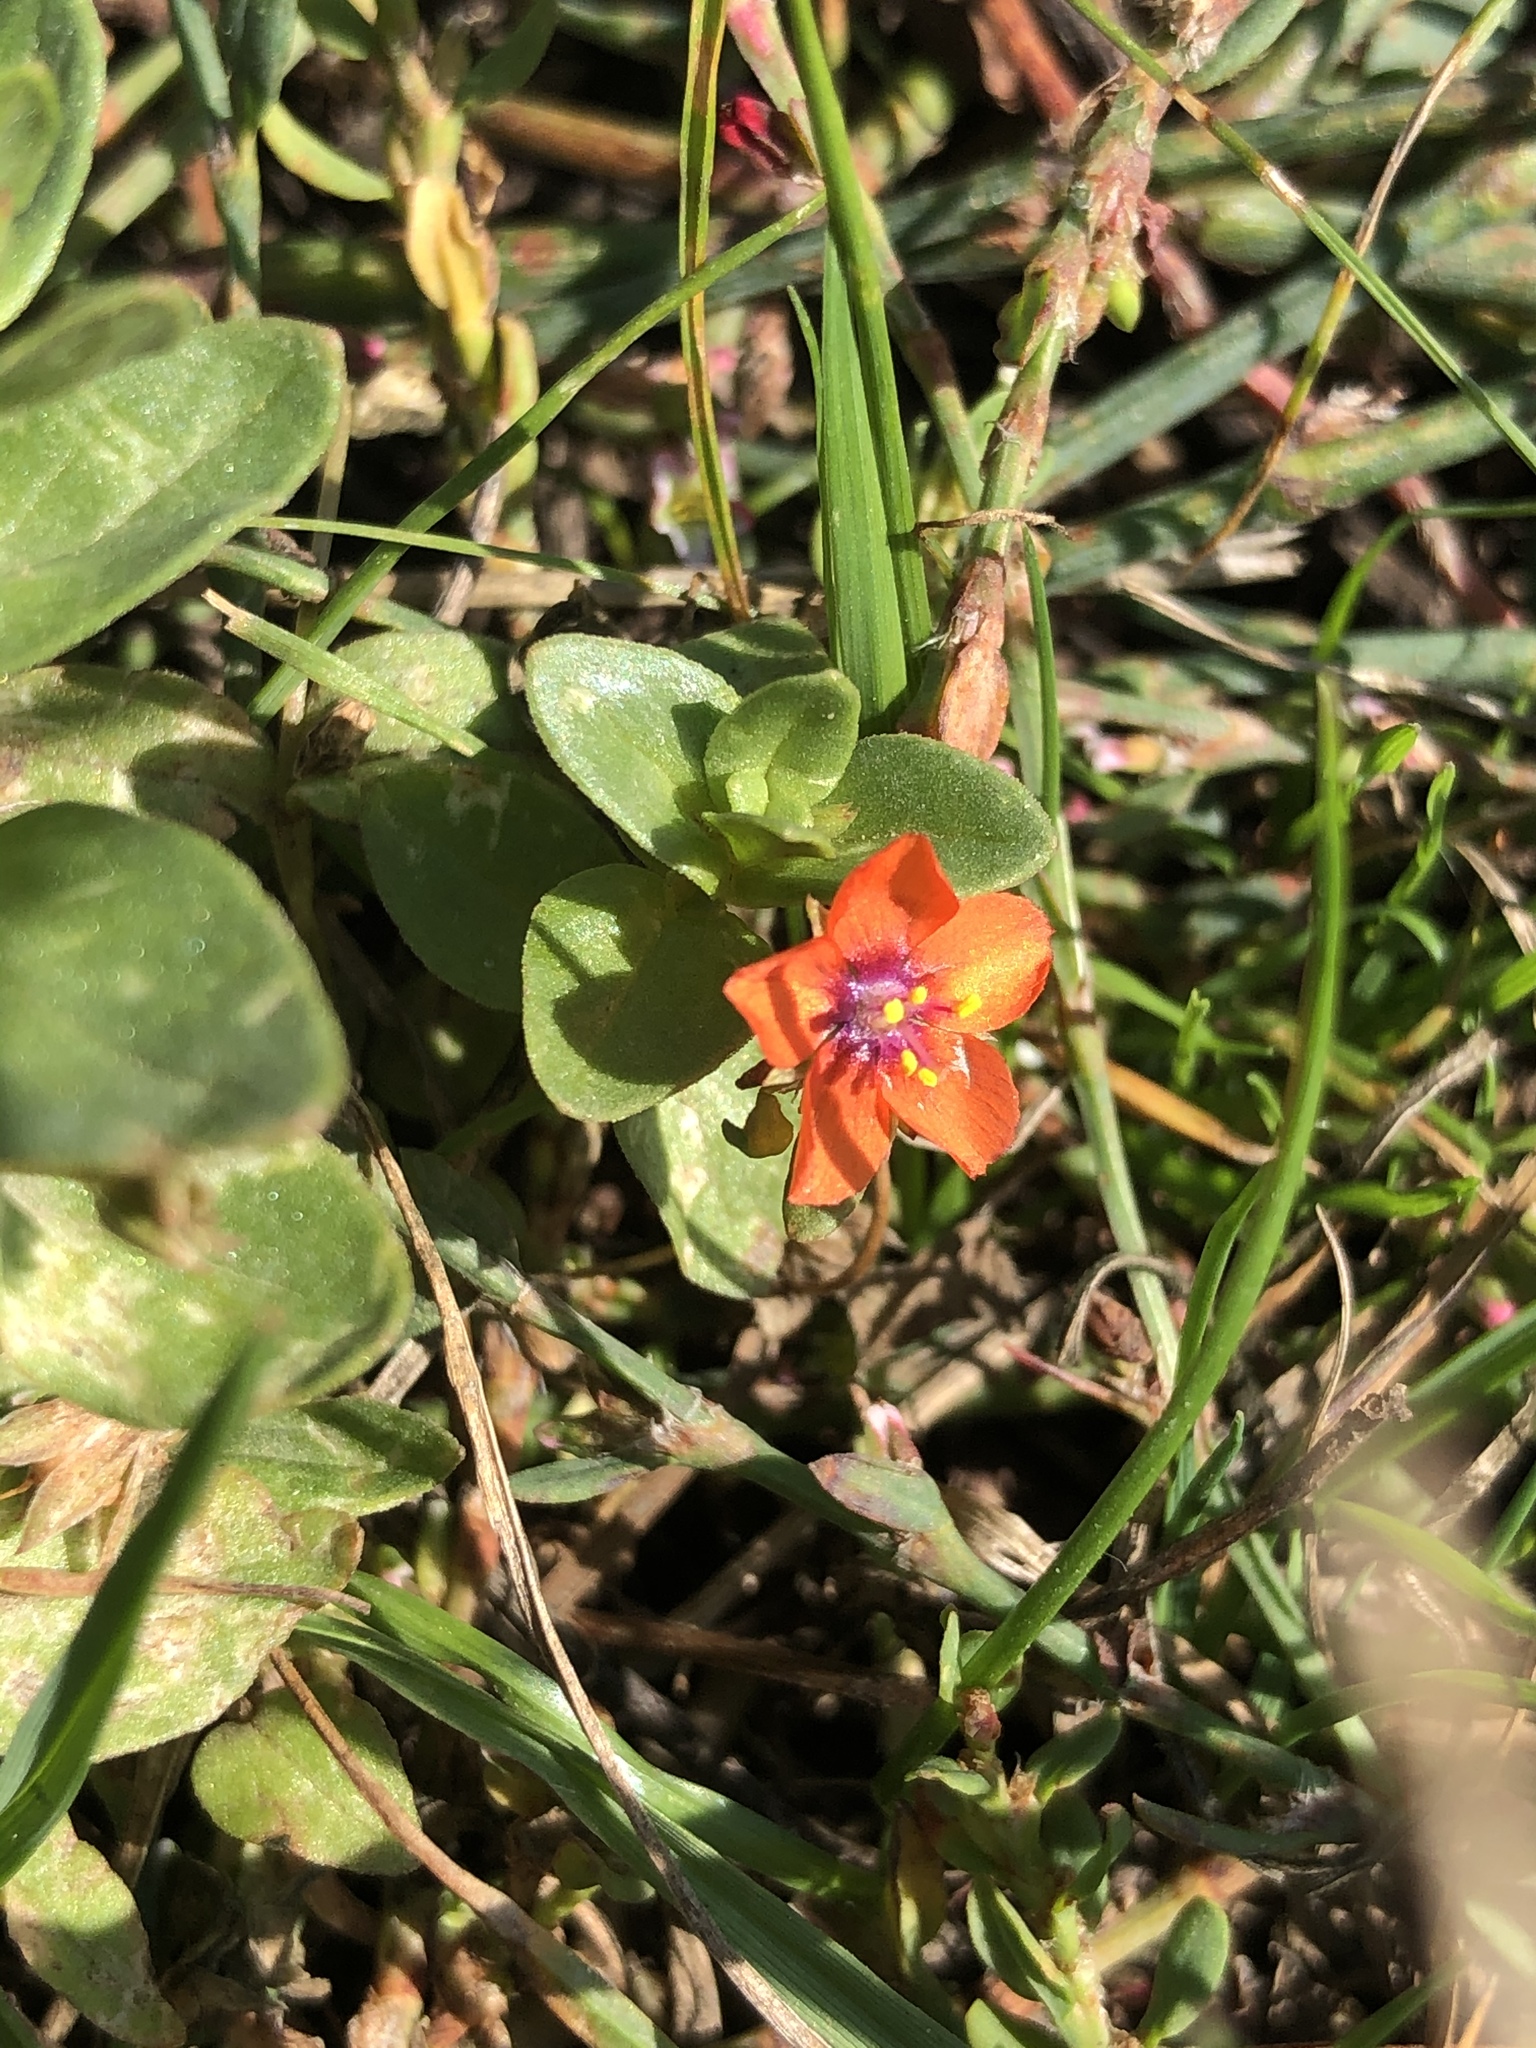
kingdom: Plantae
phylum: Tracheophyta
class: Magnoliopsida
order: Ericales
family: Primulaceae
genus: Lysimachia
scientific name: Lysimachia arvensis
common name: Scarlet pimpernel
